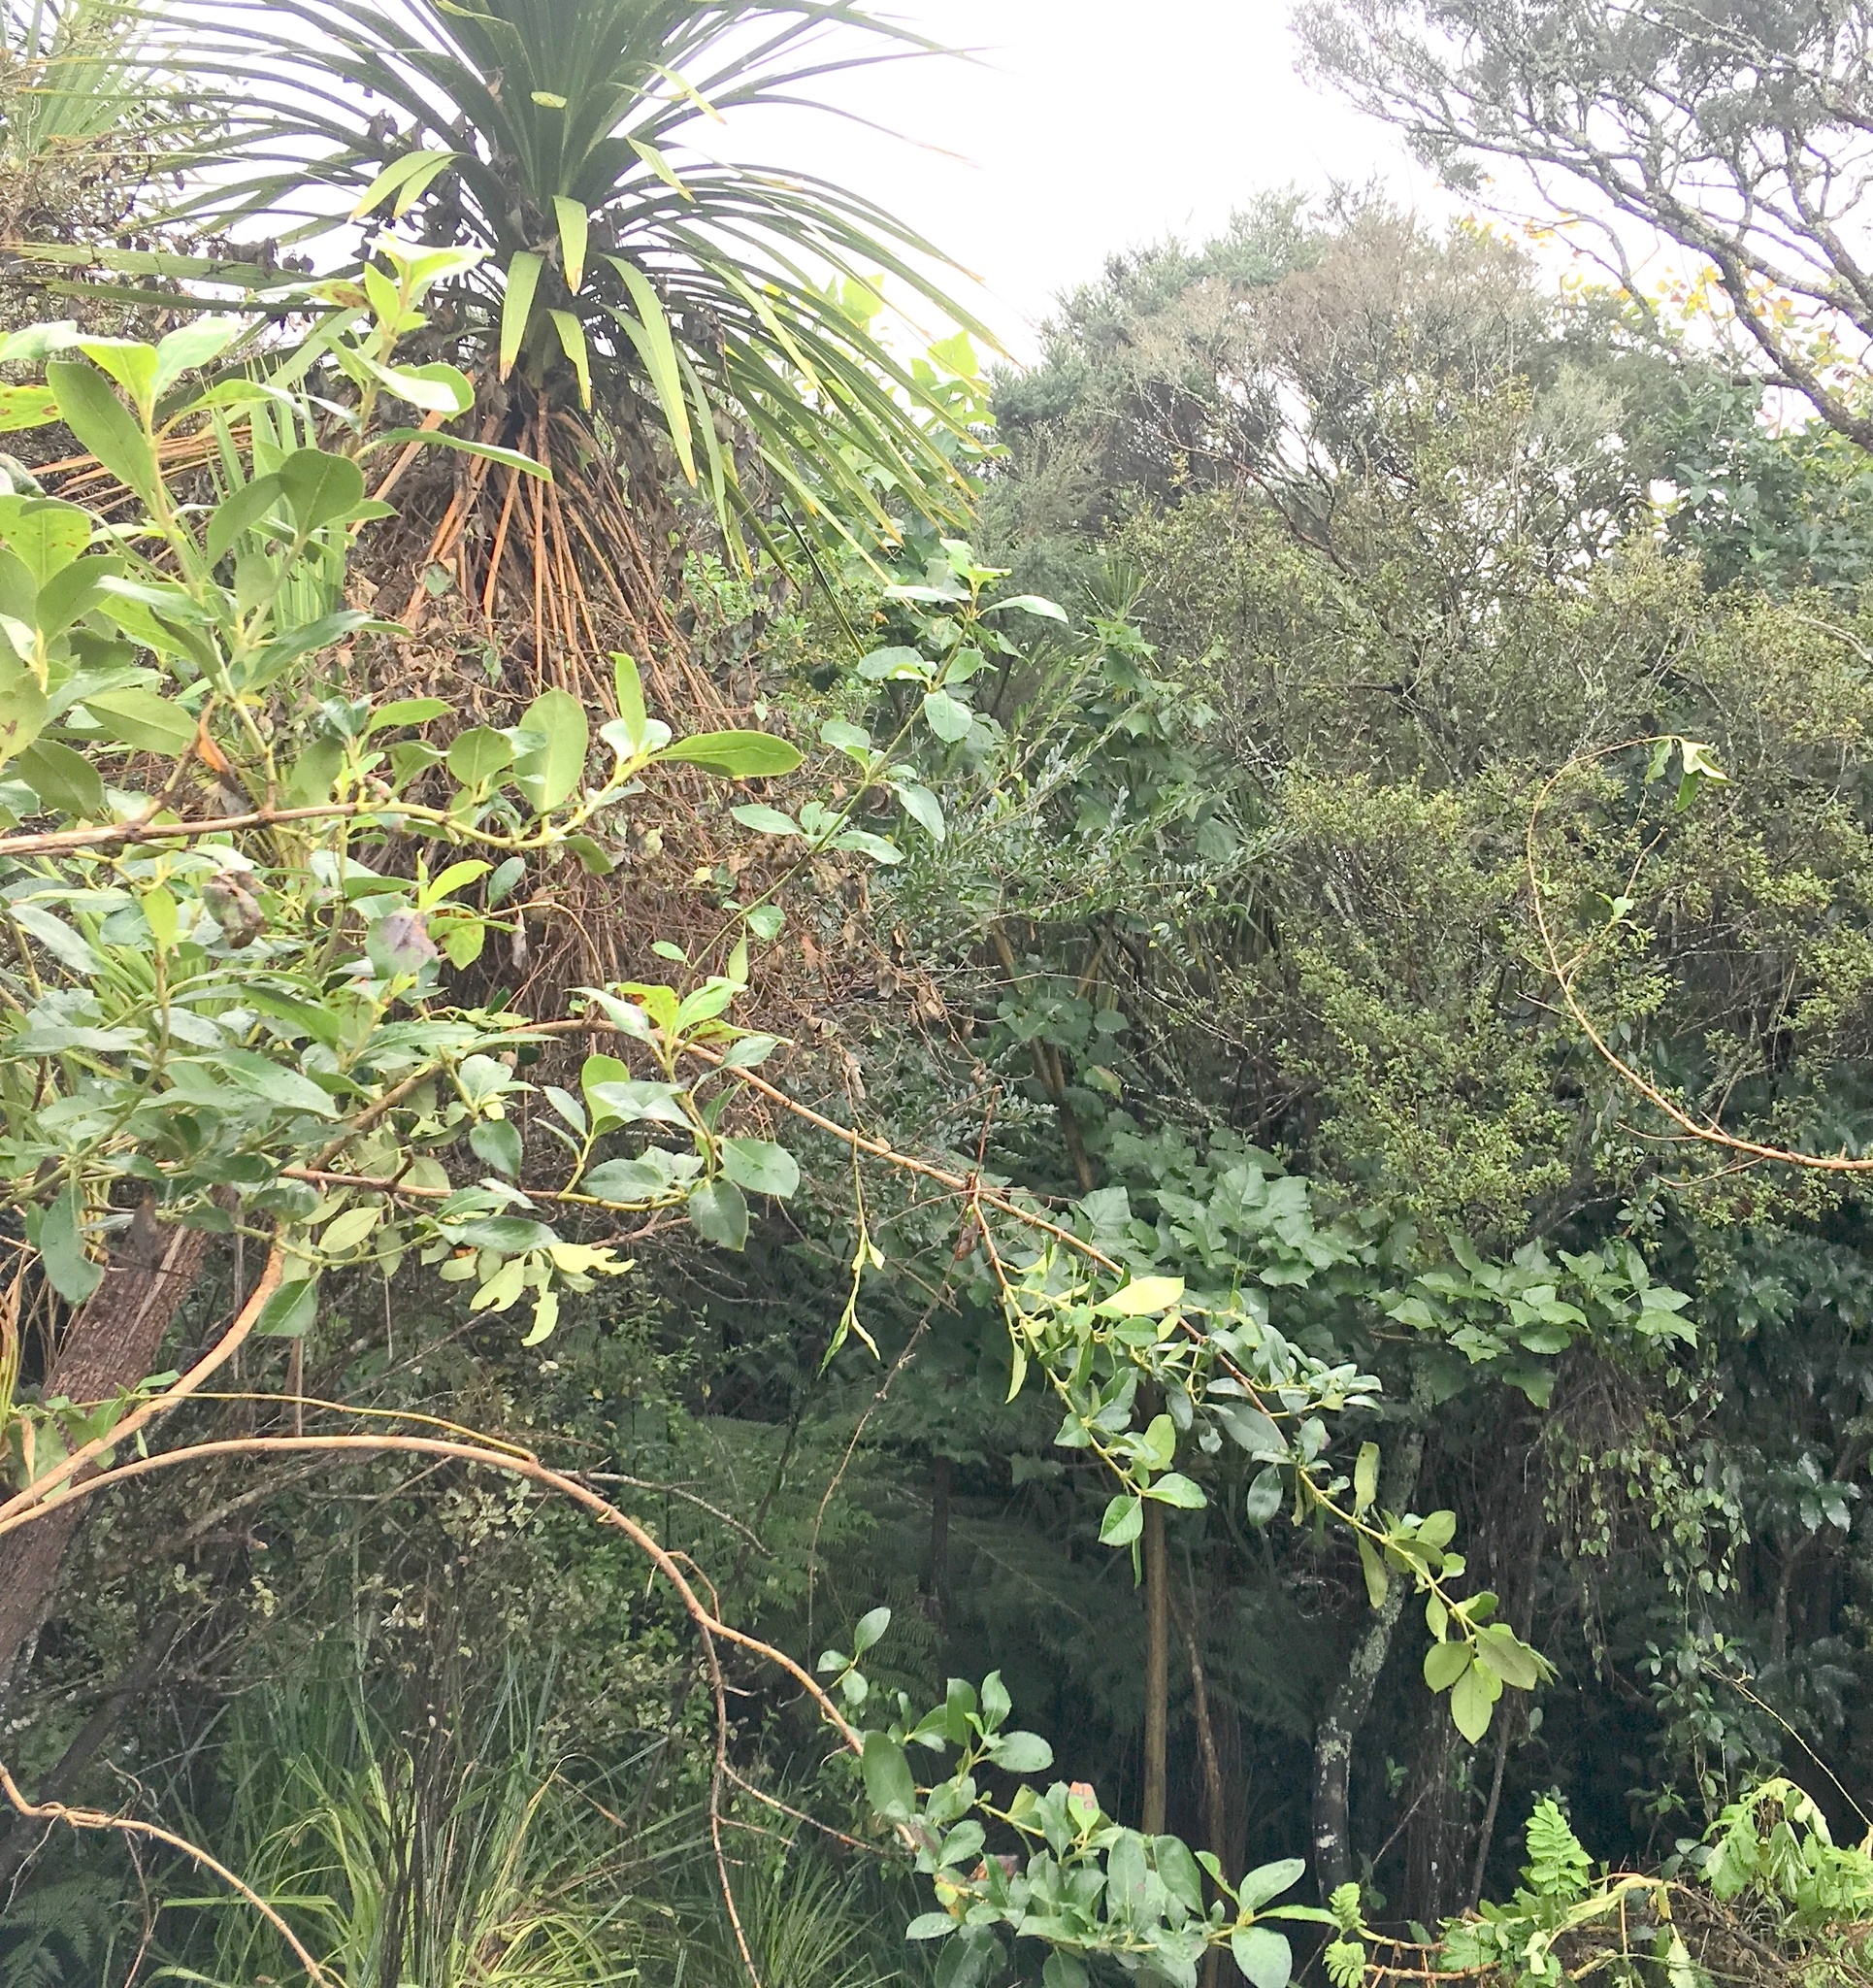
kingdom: Plantae
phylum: Tracheophyta
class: Magnoliopsida
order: Lamiales
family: Oleaceae
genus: Ligustrum
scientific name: Ligustrum sinense
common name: Chinese privet
